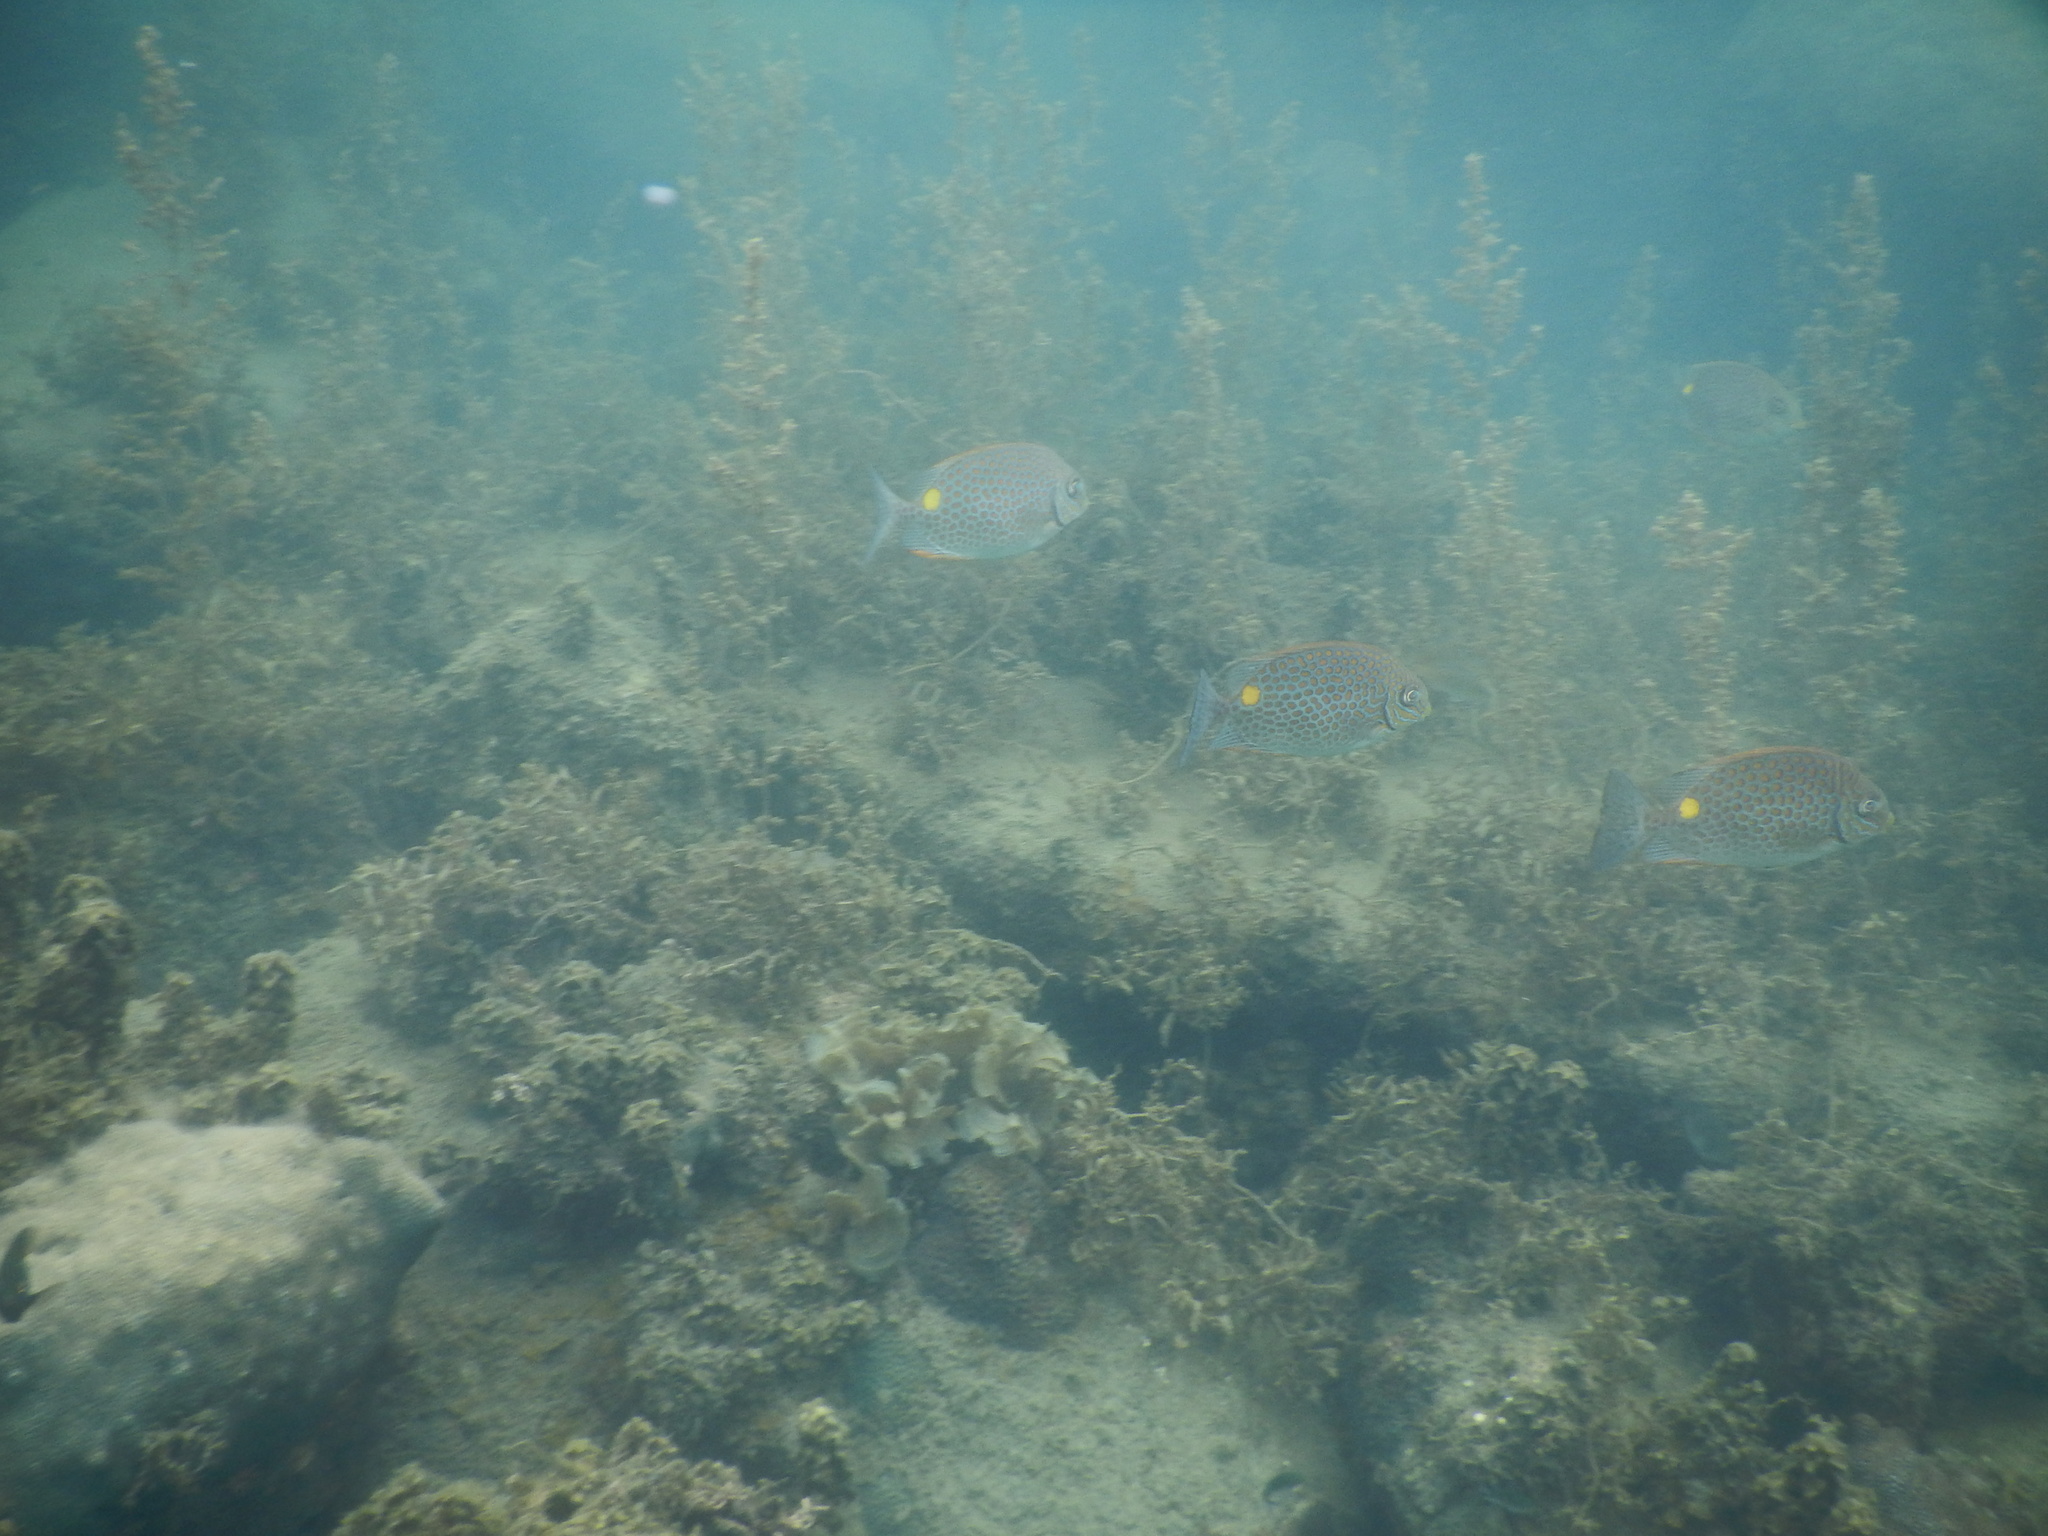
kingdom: Animalia
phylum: Chordata
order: Perciformes
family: Siganidae
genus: Siganus
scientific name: Siganus guttatus
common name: Golden rabbitfish
